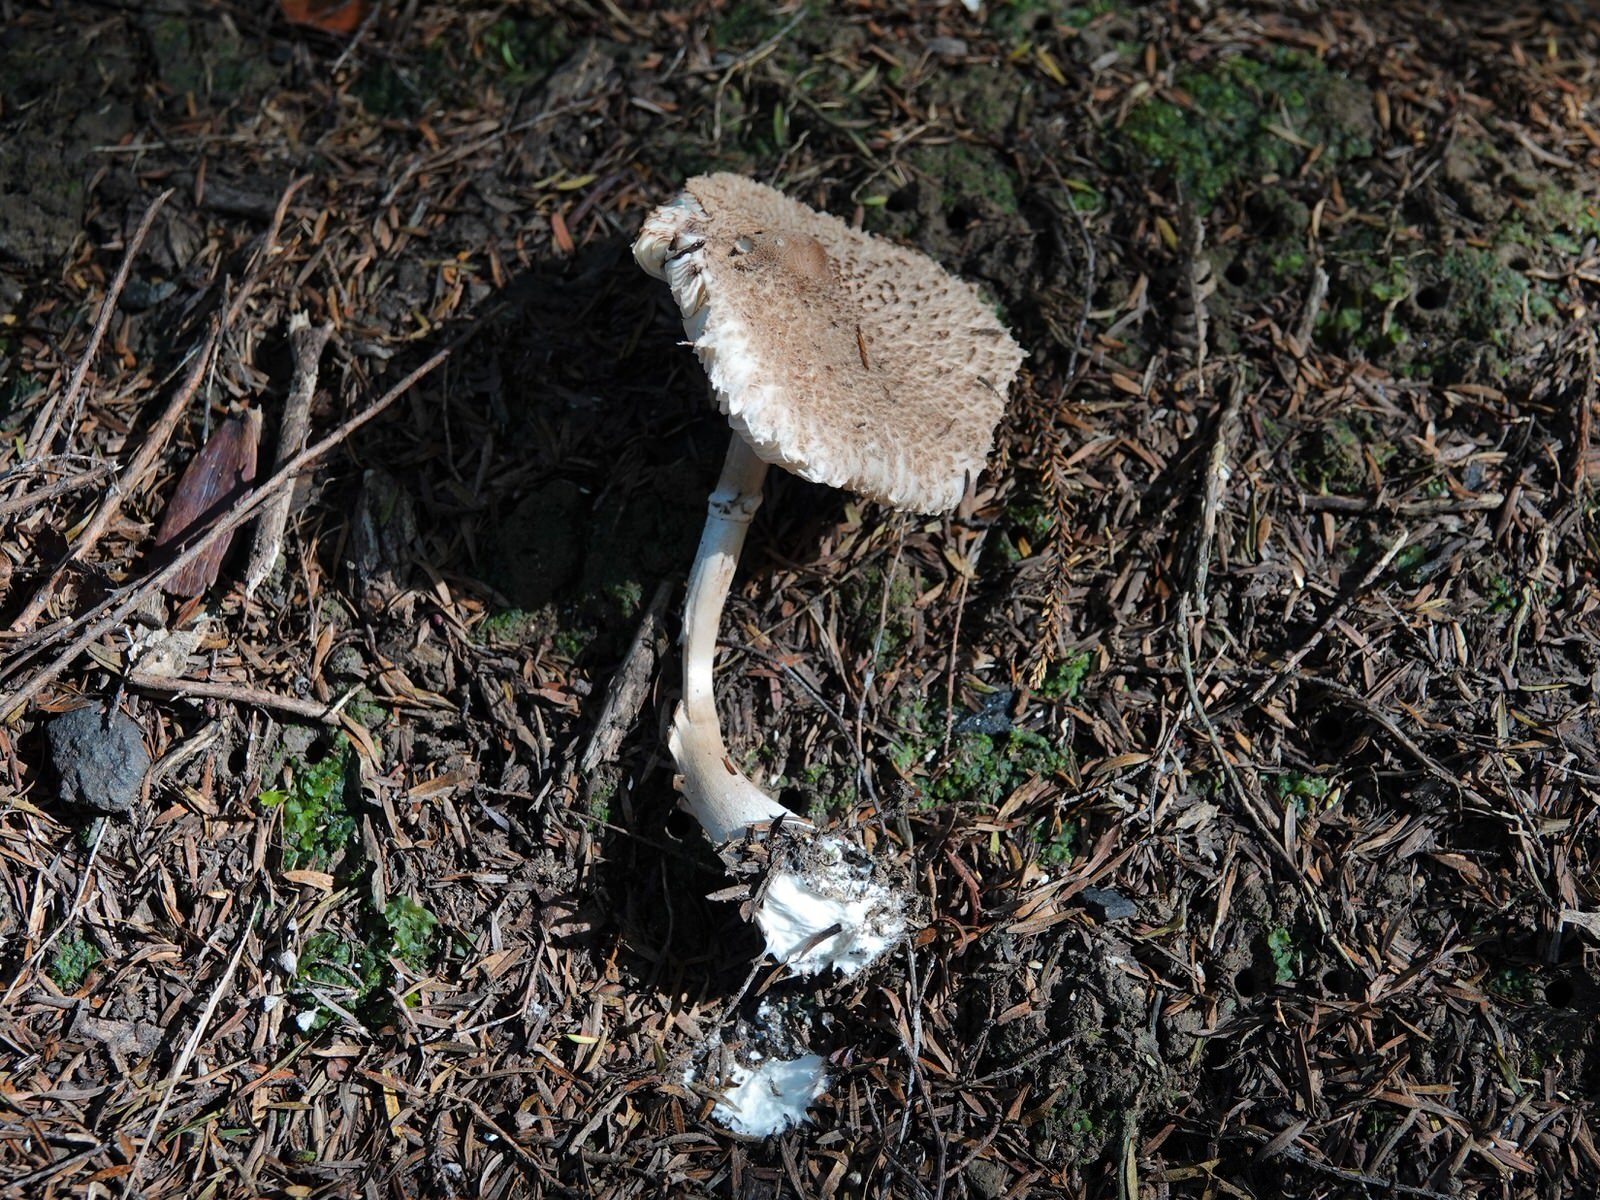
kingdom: Fungi
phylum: Basidiomycota
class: Agaricomycetes
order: Agaricales
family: Agaricaceae
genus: Macrolepiota
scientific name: Macrolepiota clelandii
